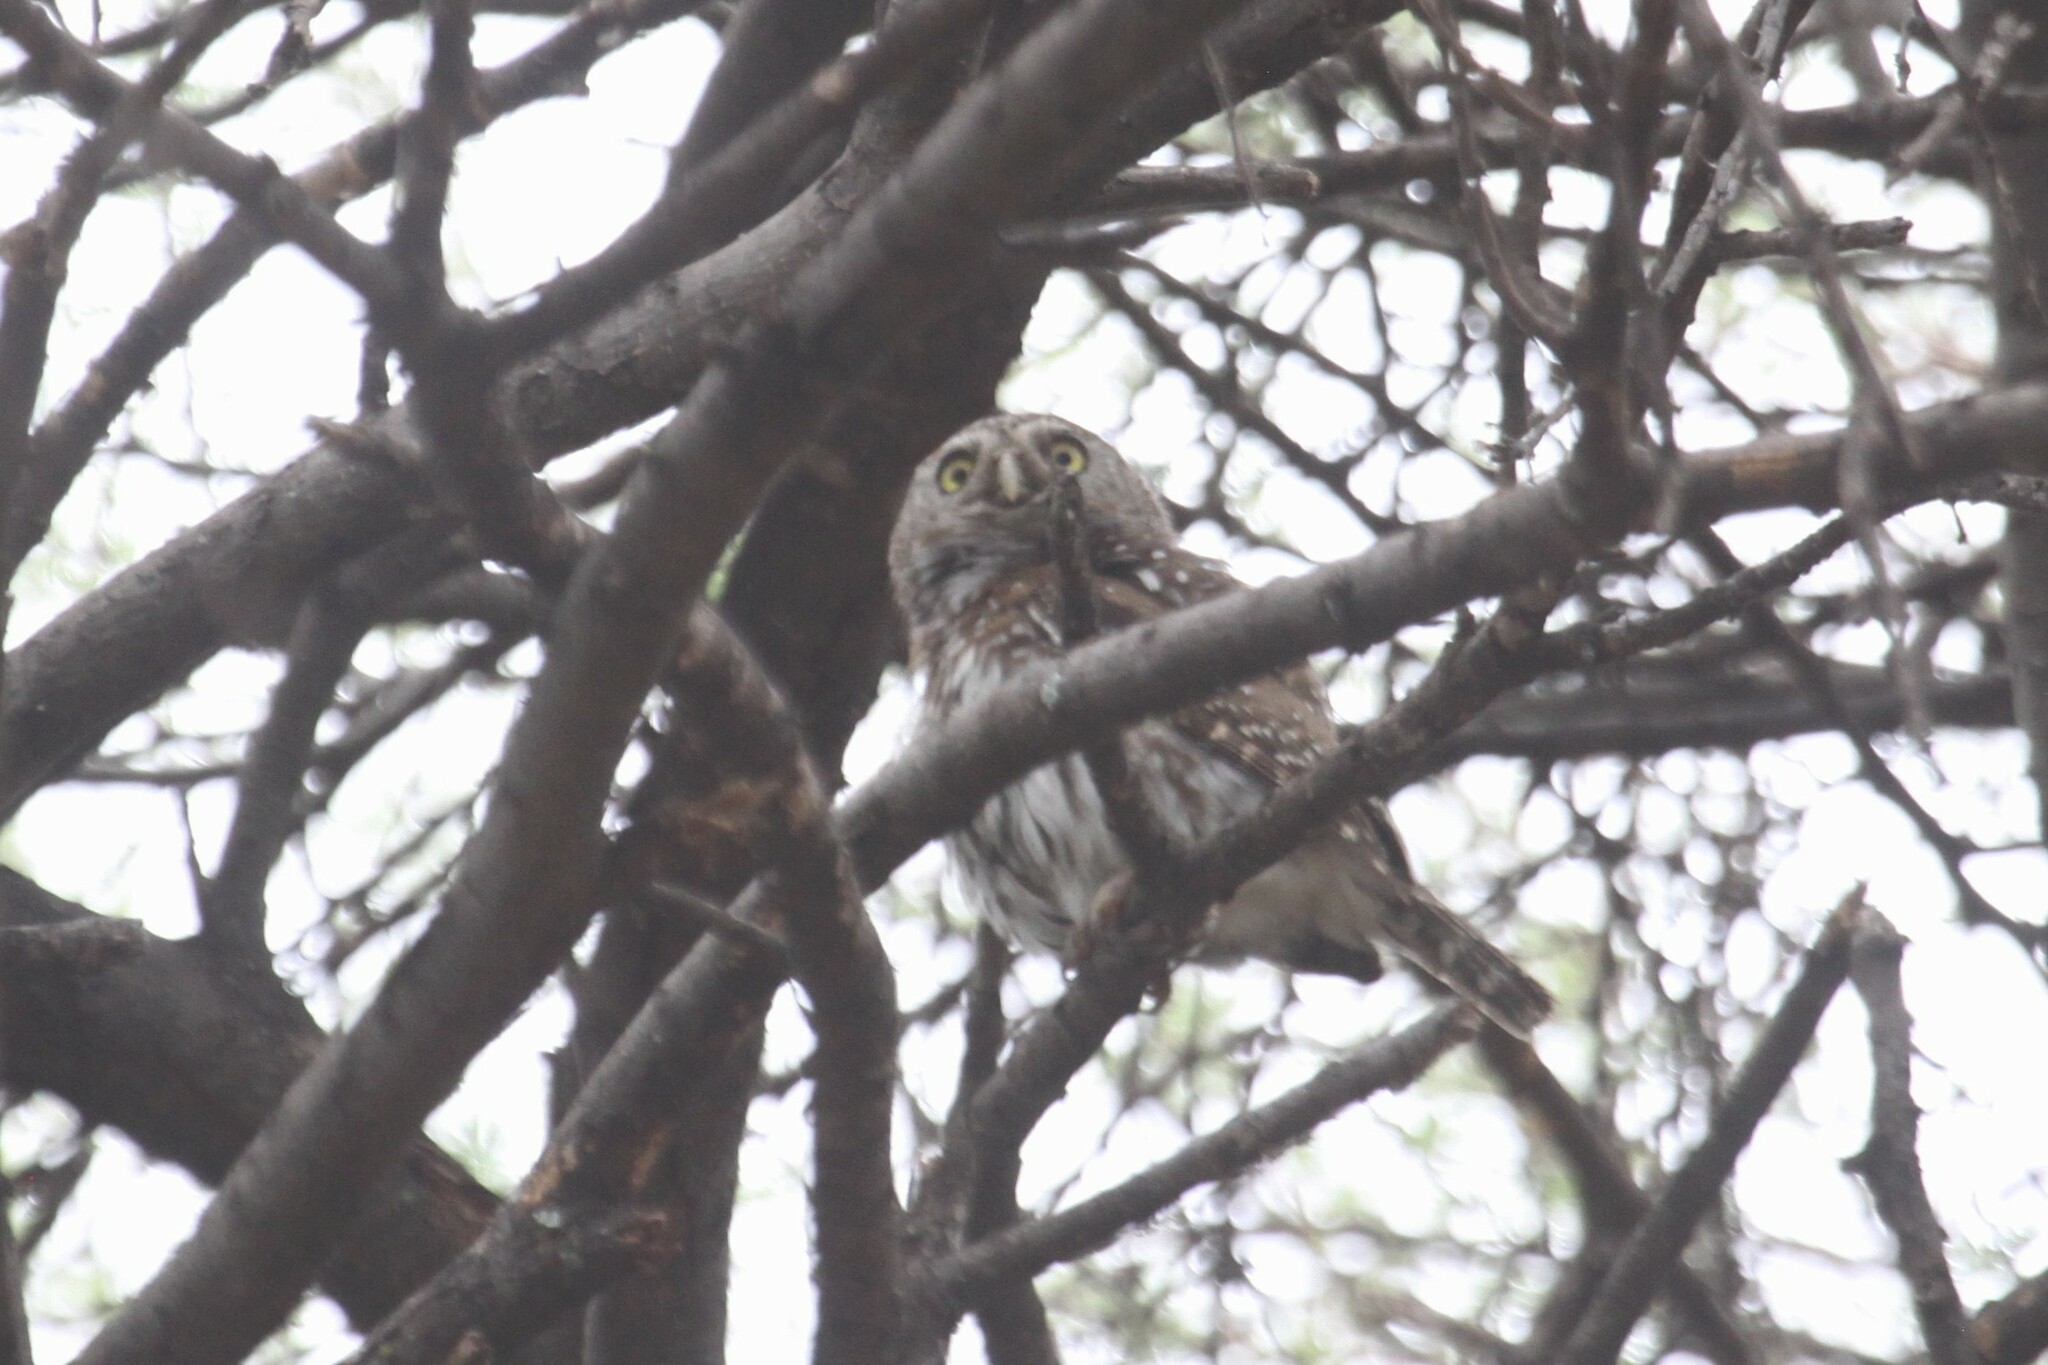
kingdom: Animalia
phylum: Chordata
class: Aves
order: Strigiformes
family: Strigidae
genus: Glaucidium
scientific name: Glaucidium perlatum
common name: Pearl-spotted owlet
